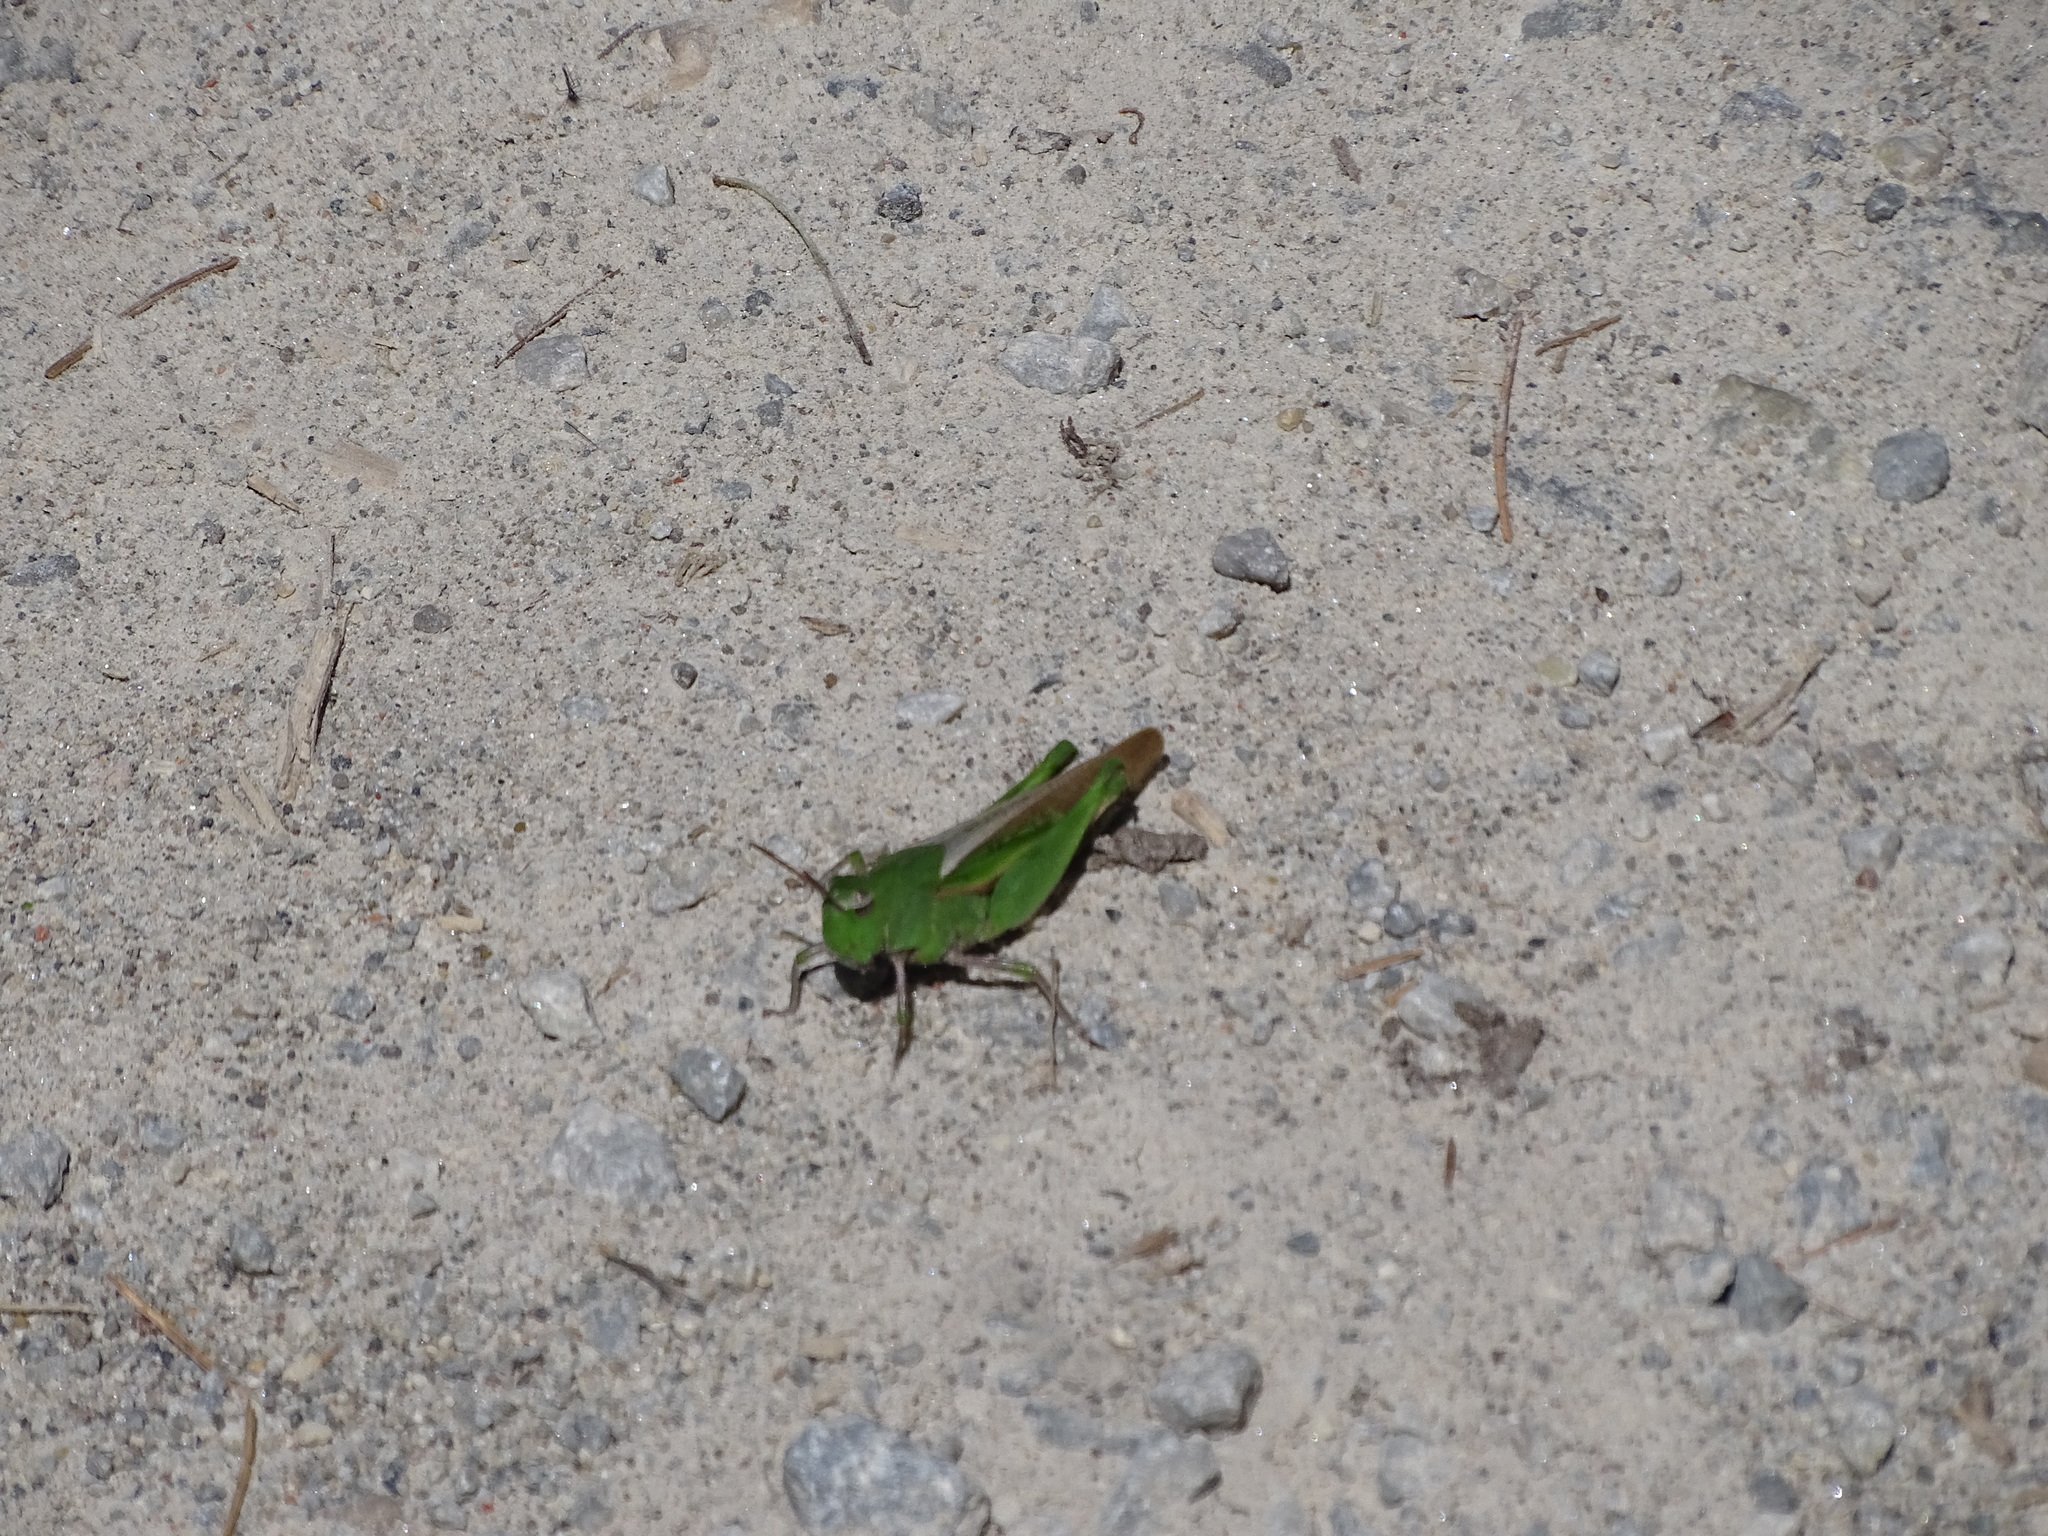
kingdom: Animalia
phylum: Arthropoda
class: Insecta
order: Orthoptera
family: Acrididae
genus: Chortophaga
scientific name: Chortophaga viridifasciata
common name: Green-striped grasshopper
